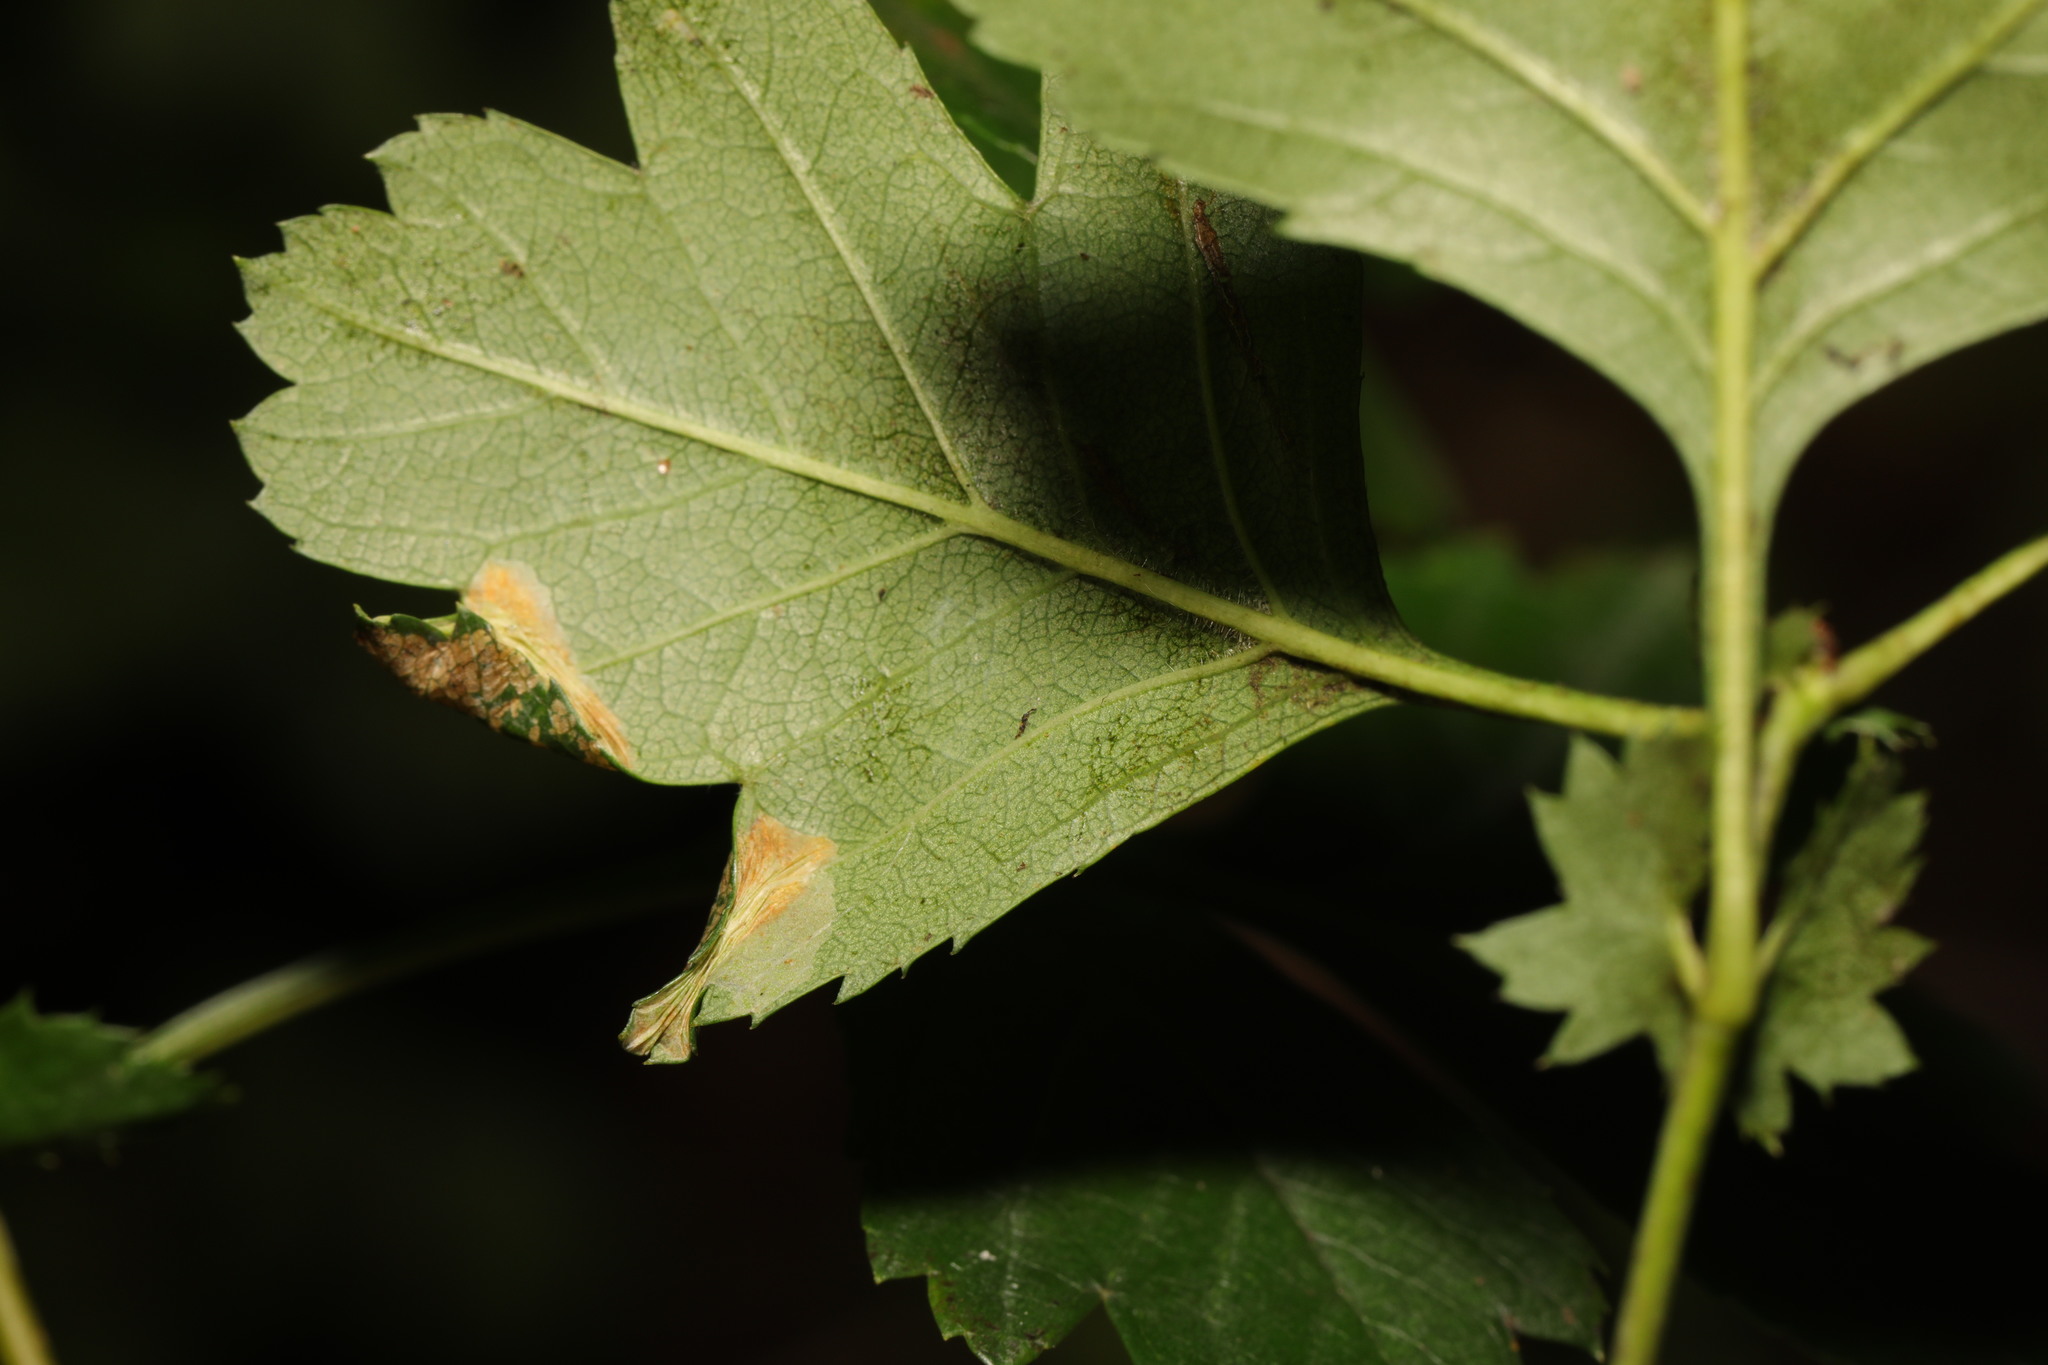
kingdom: Animalia
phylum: Arthropoda
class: Insecta
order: Lepidoptera
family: Gracillariidae
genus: Phyllonorycter
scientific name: Phyllonorycter oxyacanthae
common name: Common thorn midget
